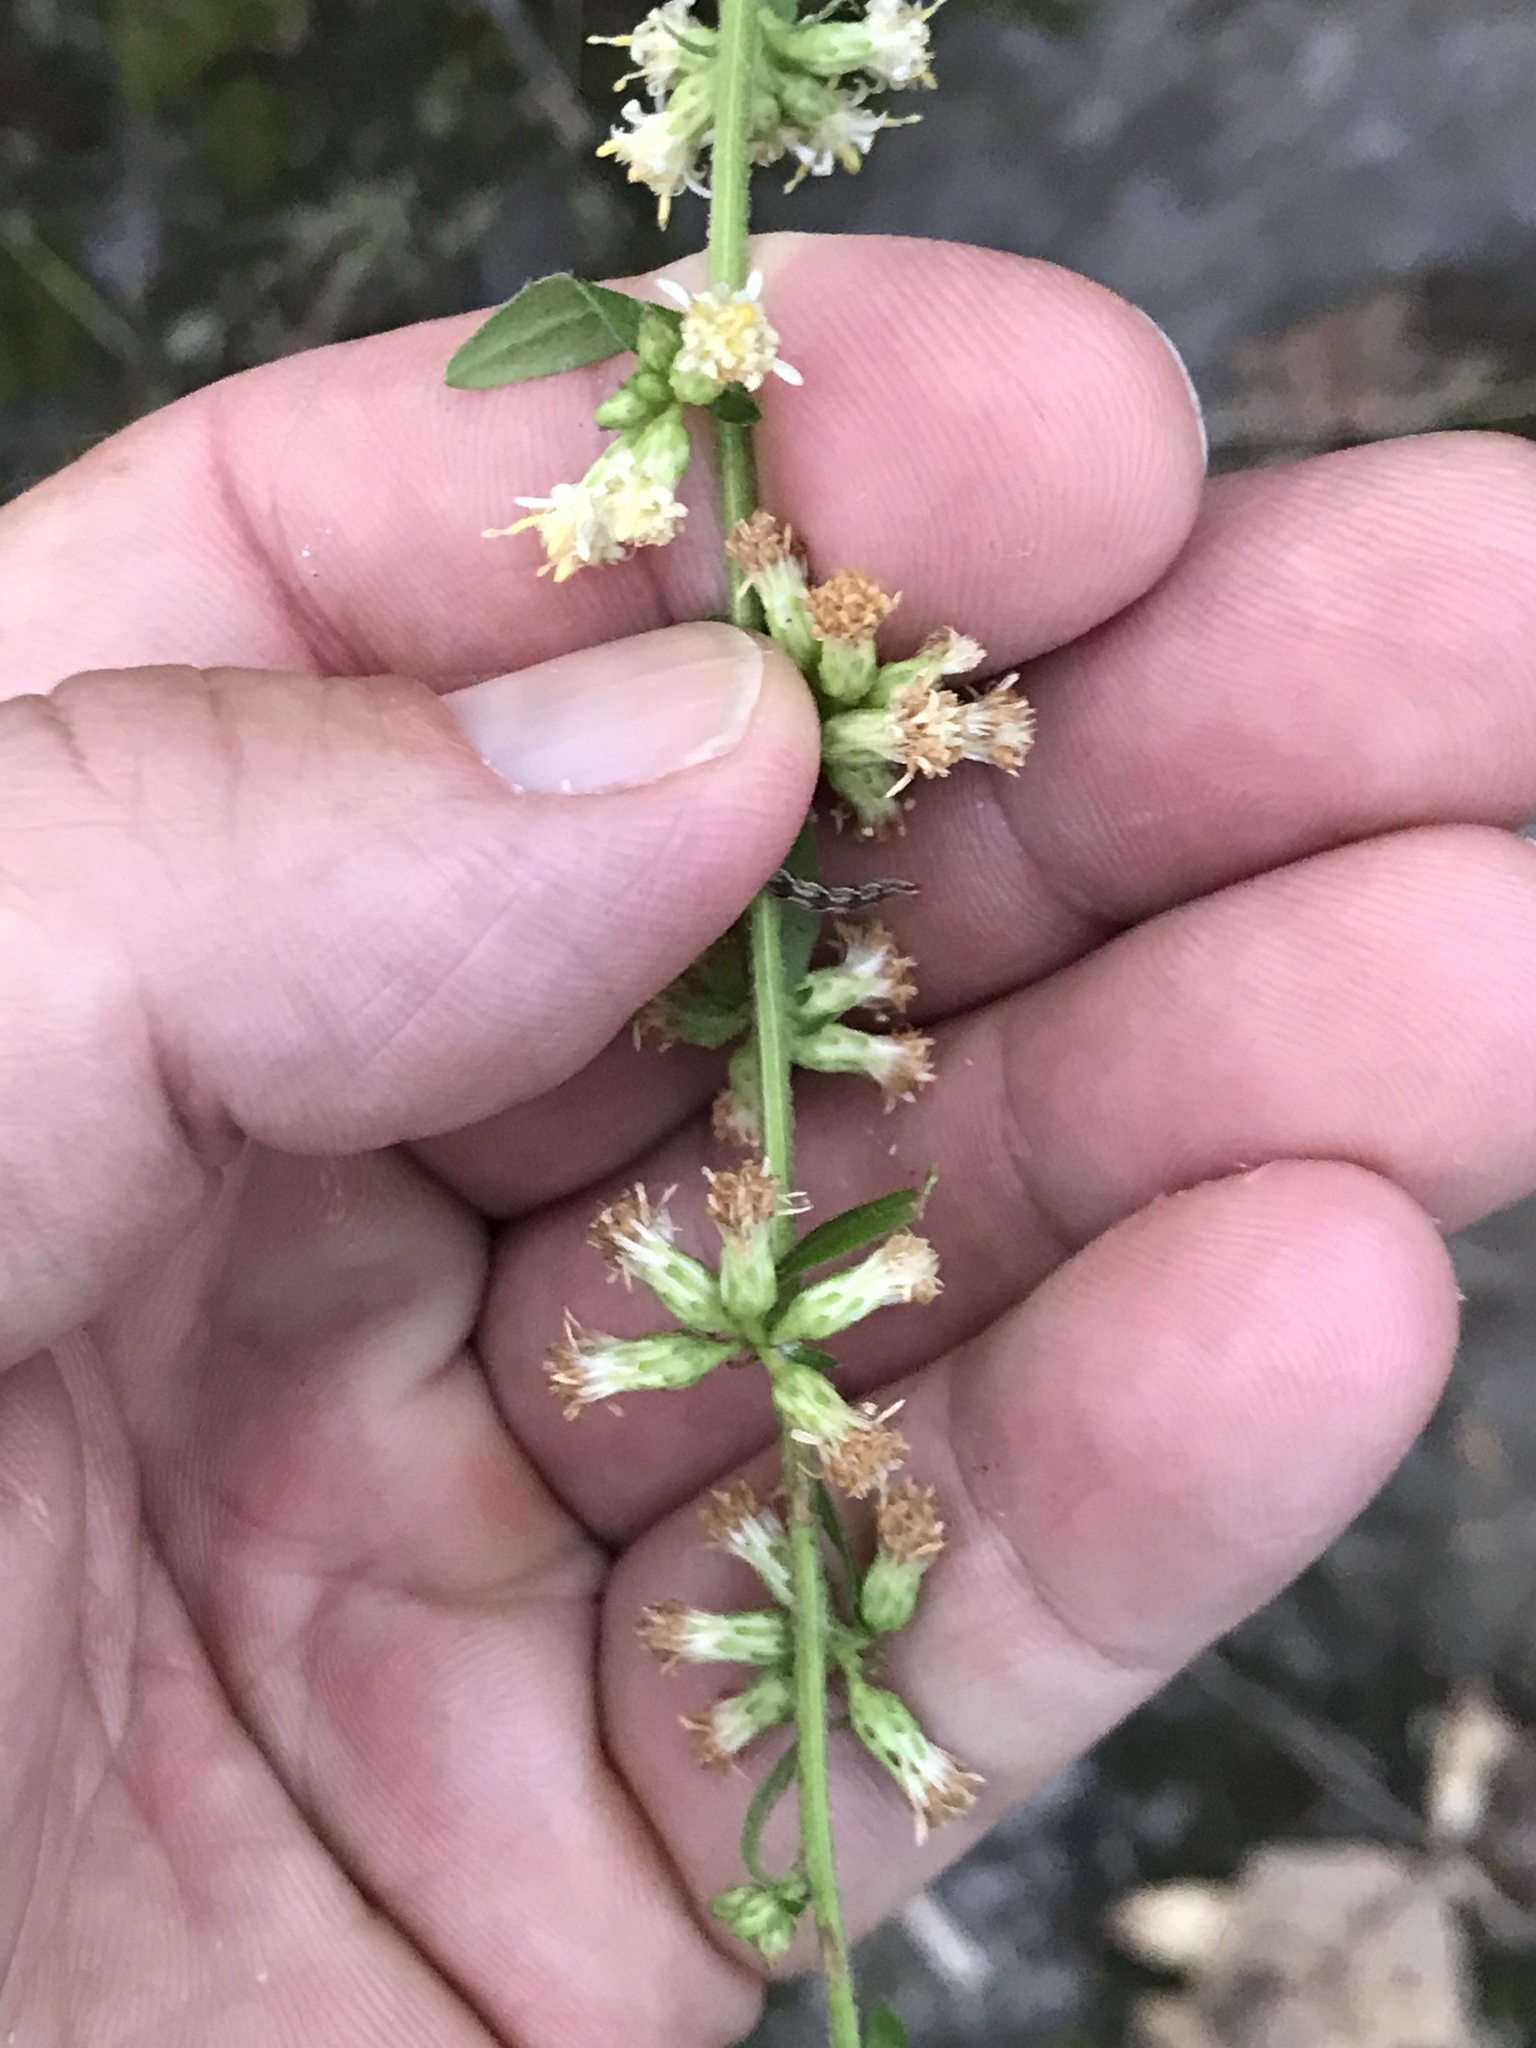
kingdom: Plantae
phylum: Tracheophyta
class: Magnoliopsida
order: Asterales
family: Asteraceae
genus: Solidago
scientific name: Solidago bicolor
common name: Silverrod
